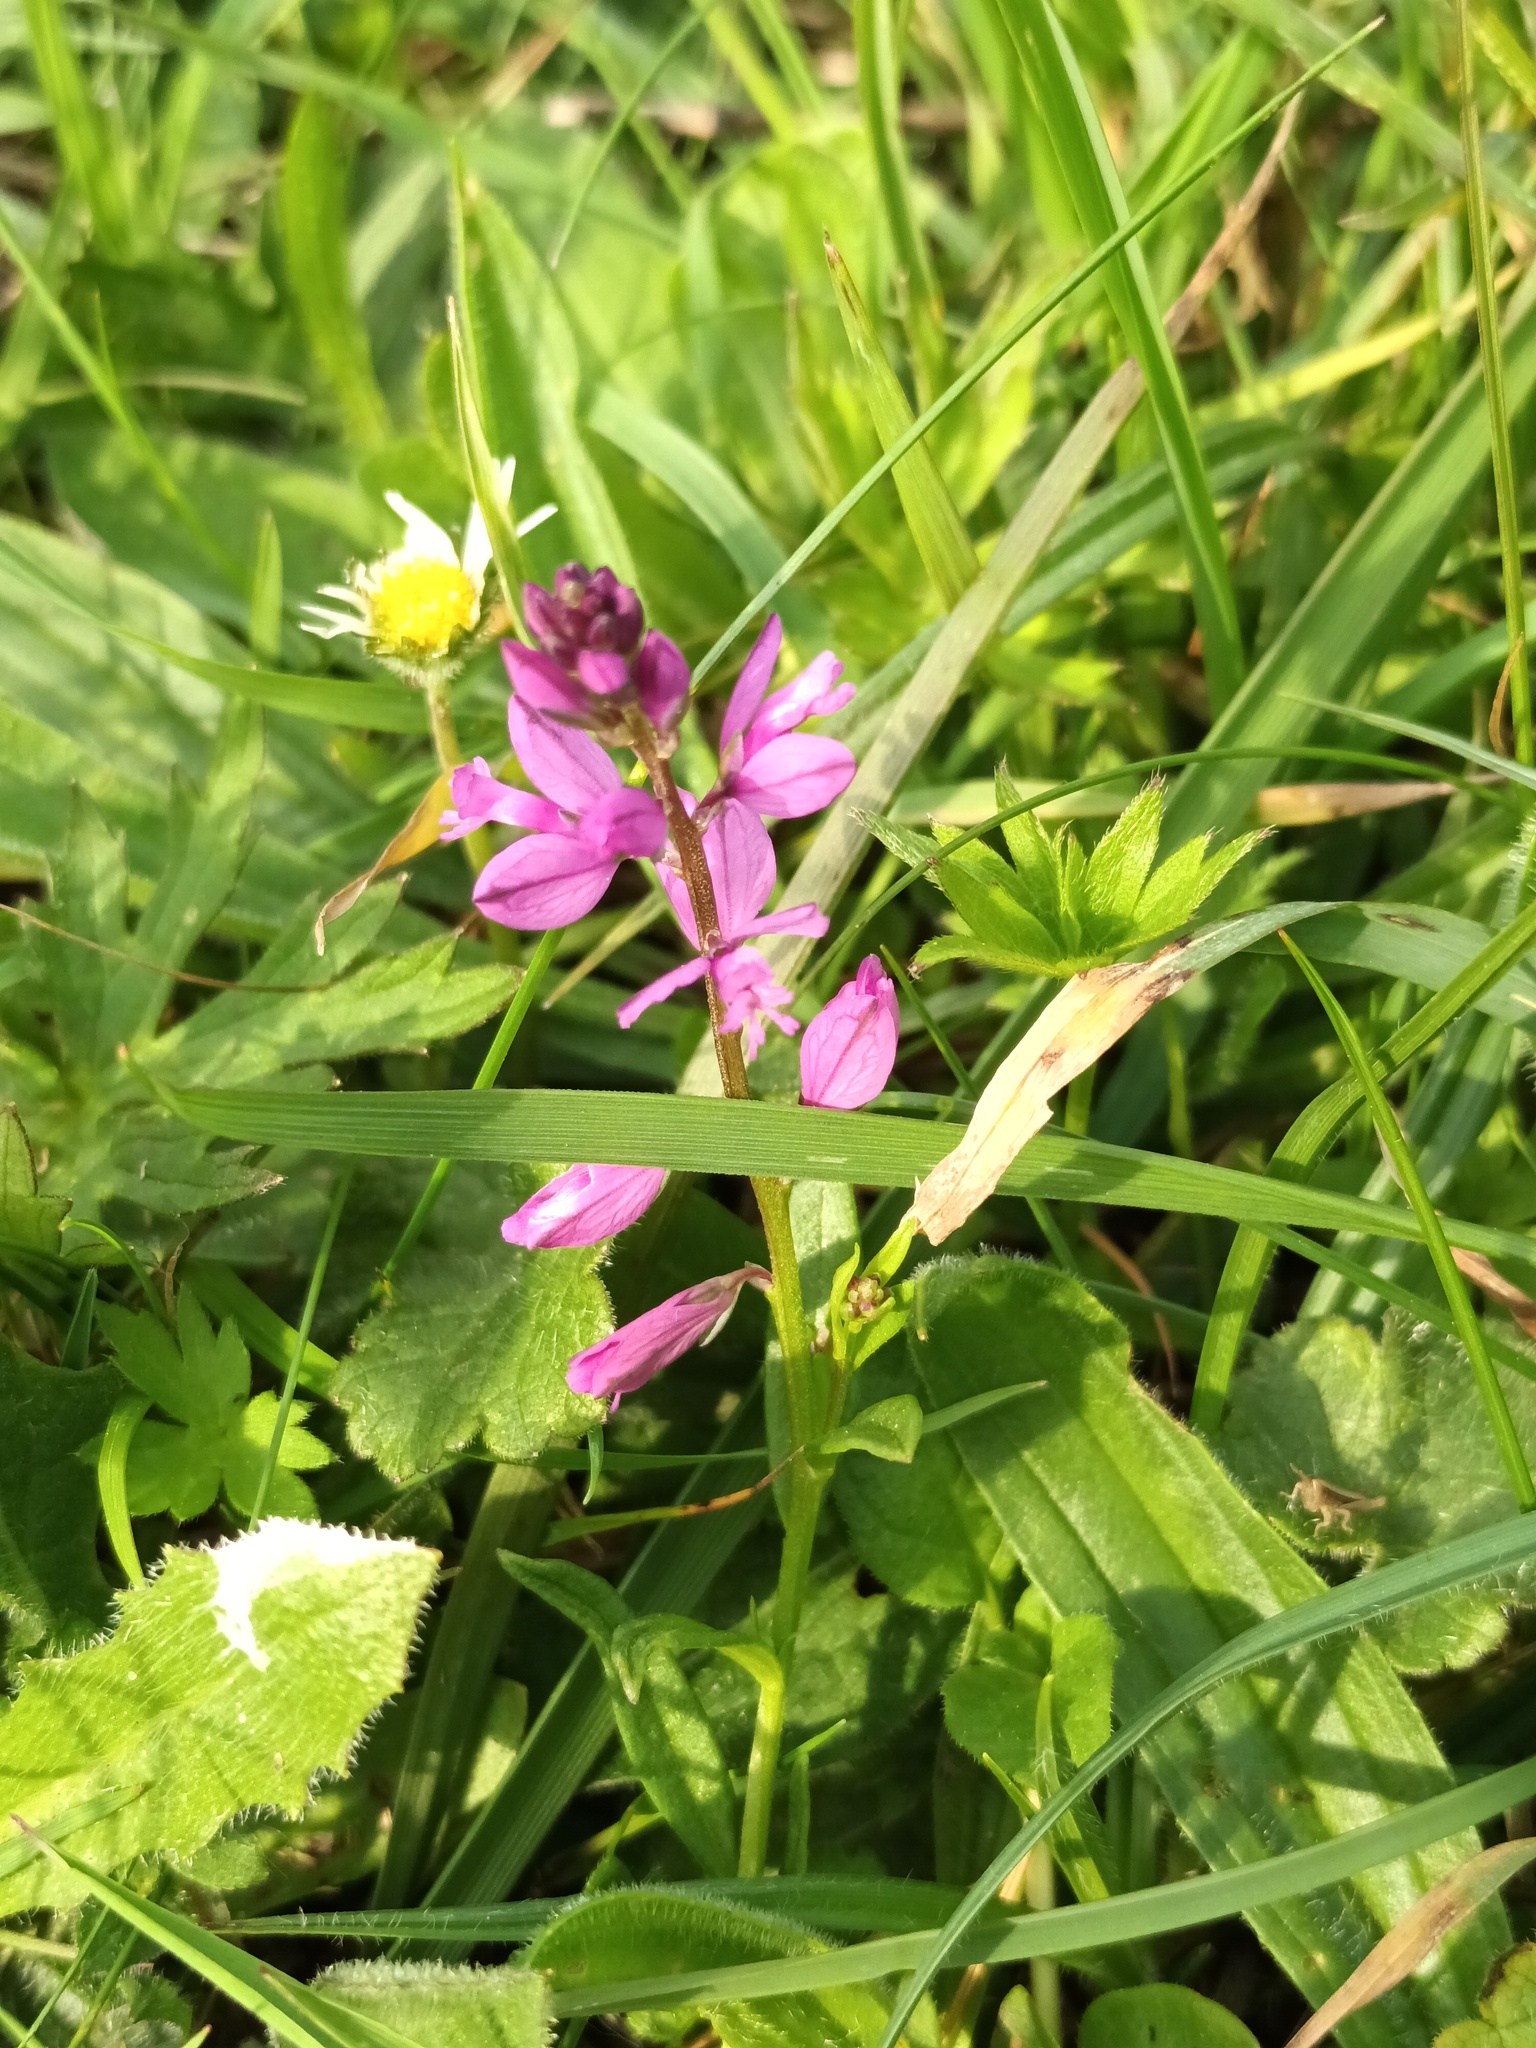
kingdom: Plantae
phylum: Tracheophyta
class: Magnoliopsida
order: Fabales
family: Polygalaceae
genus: Polygala
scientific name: Polygala vulgaris
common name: Common milkwort
